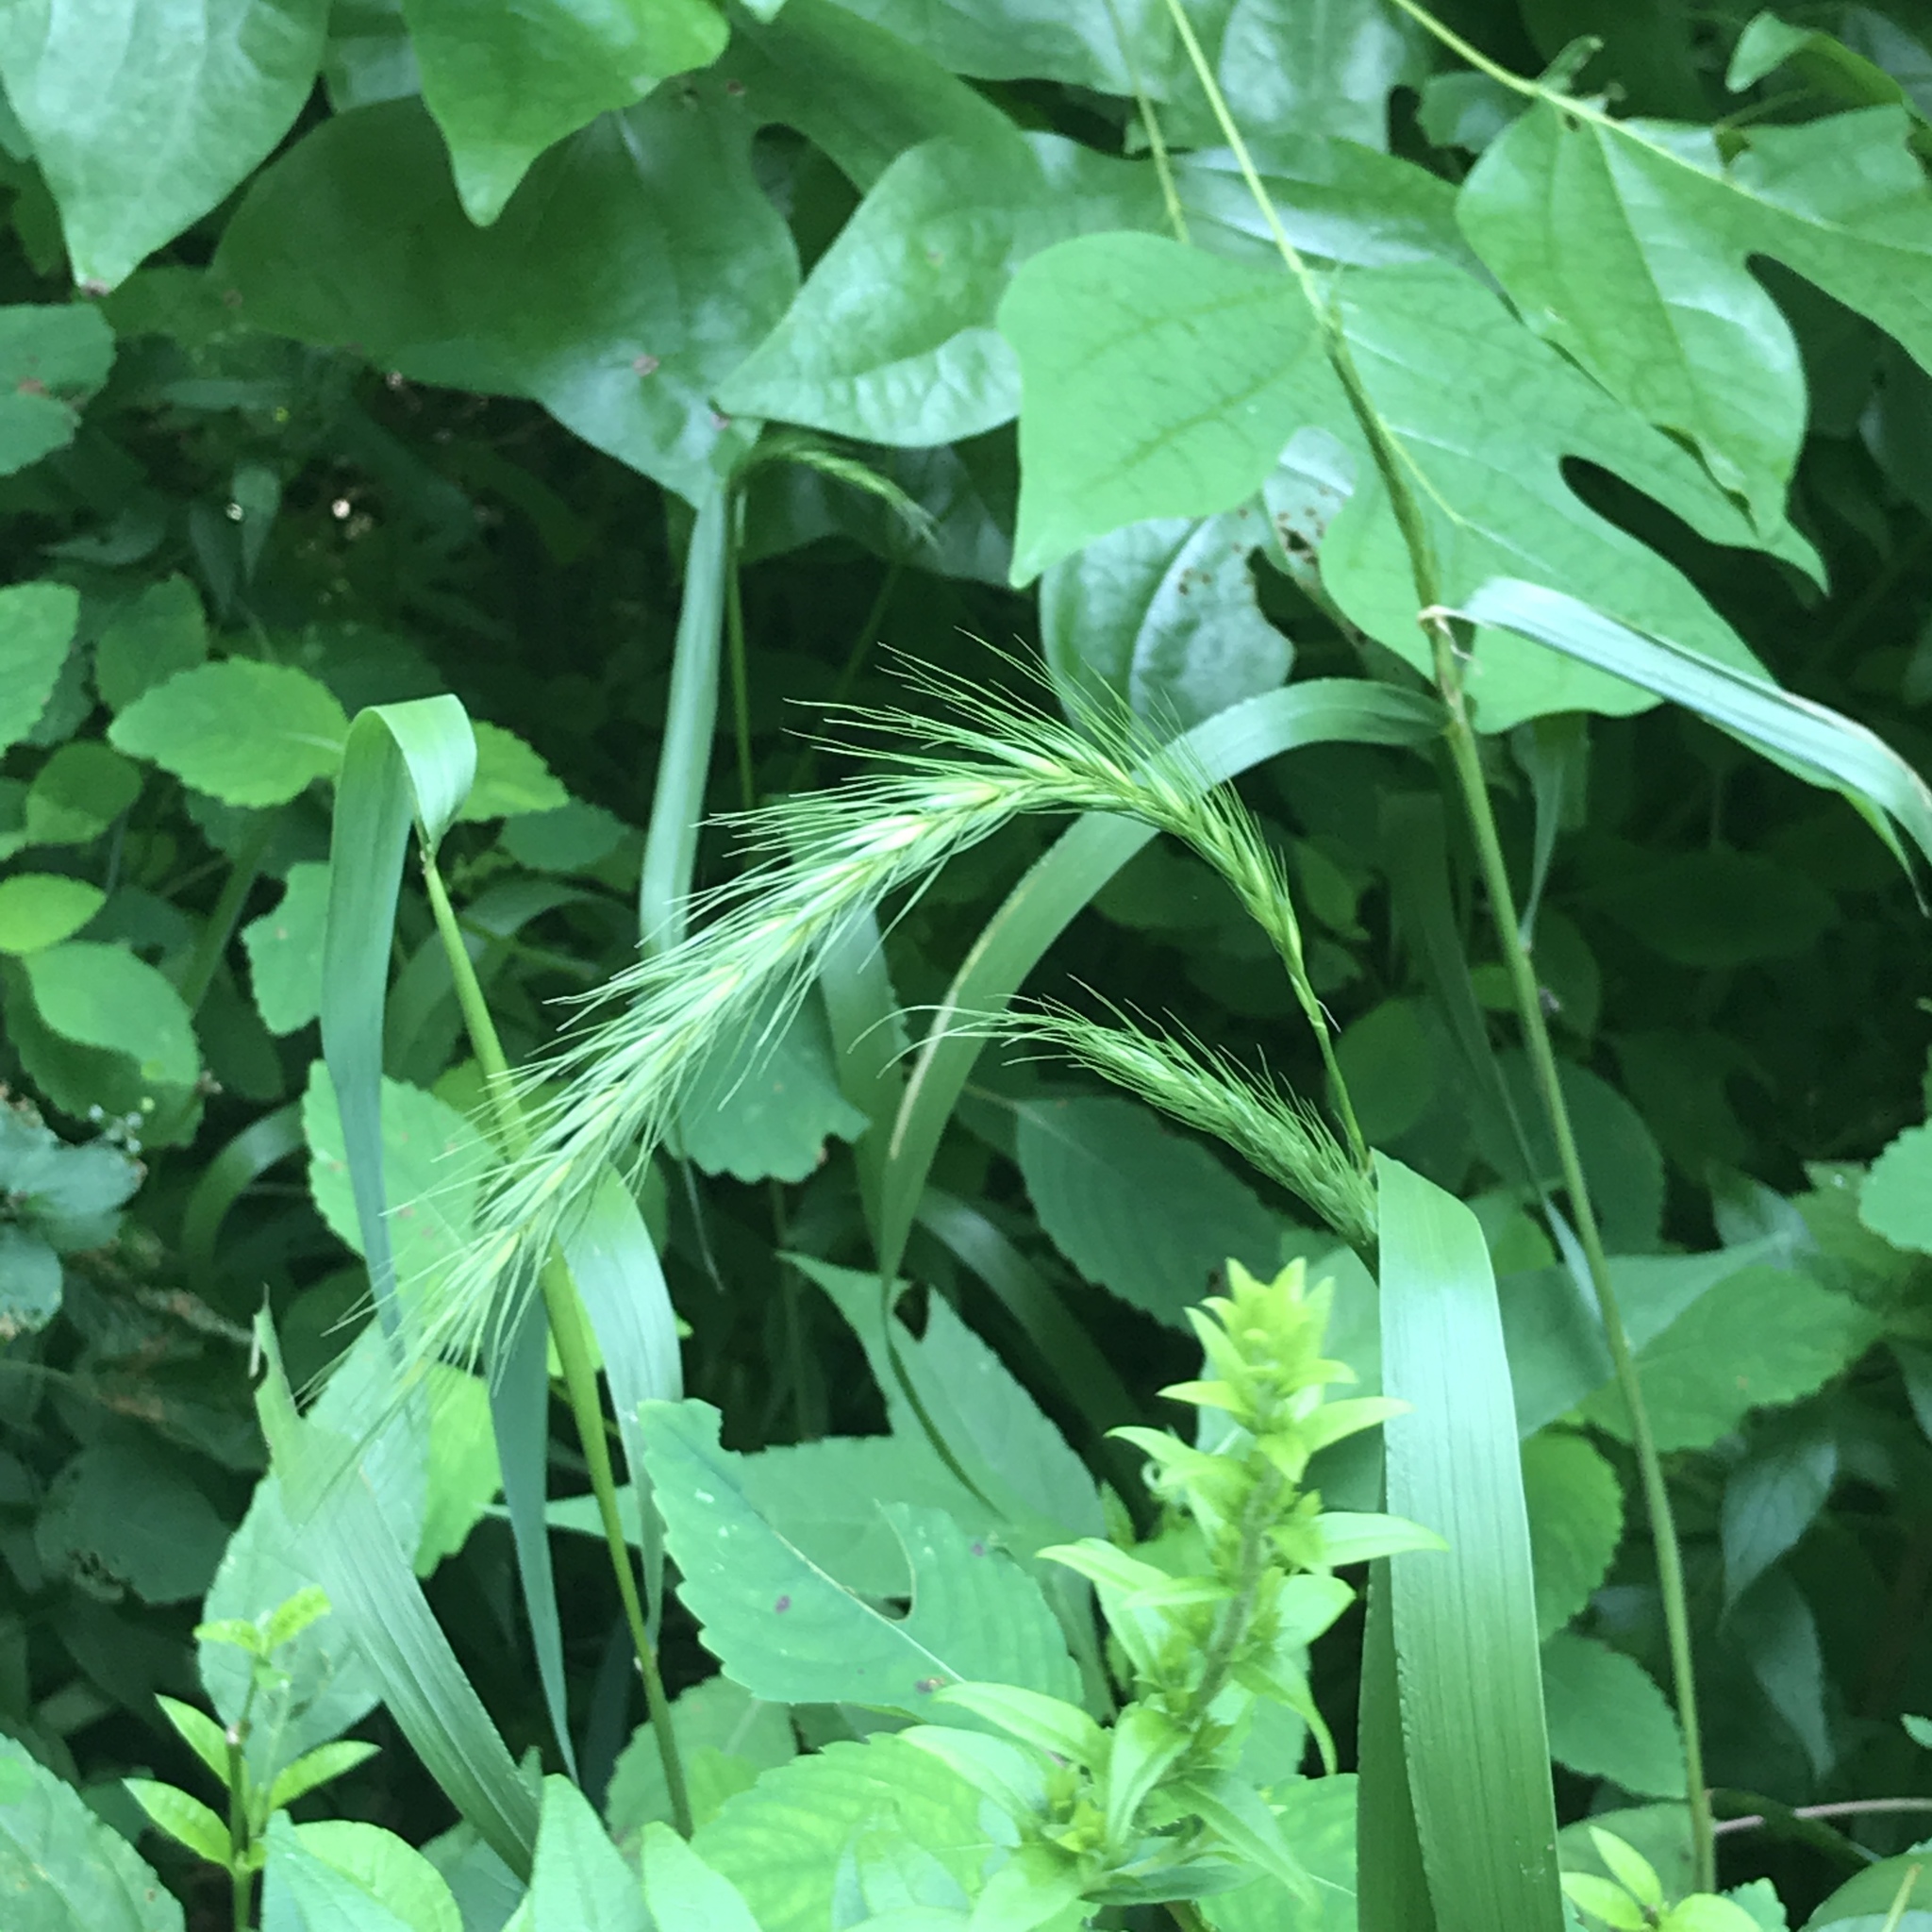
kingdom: Plantae
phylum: Tracheophyta
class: Liliopsida
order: Poales
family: Poaceae
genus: Elymus
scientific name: Elymus riparius
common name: Eastern riverbank wild rye
